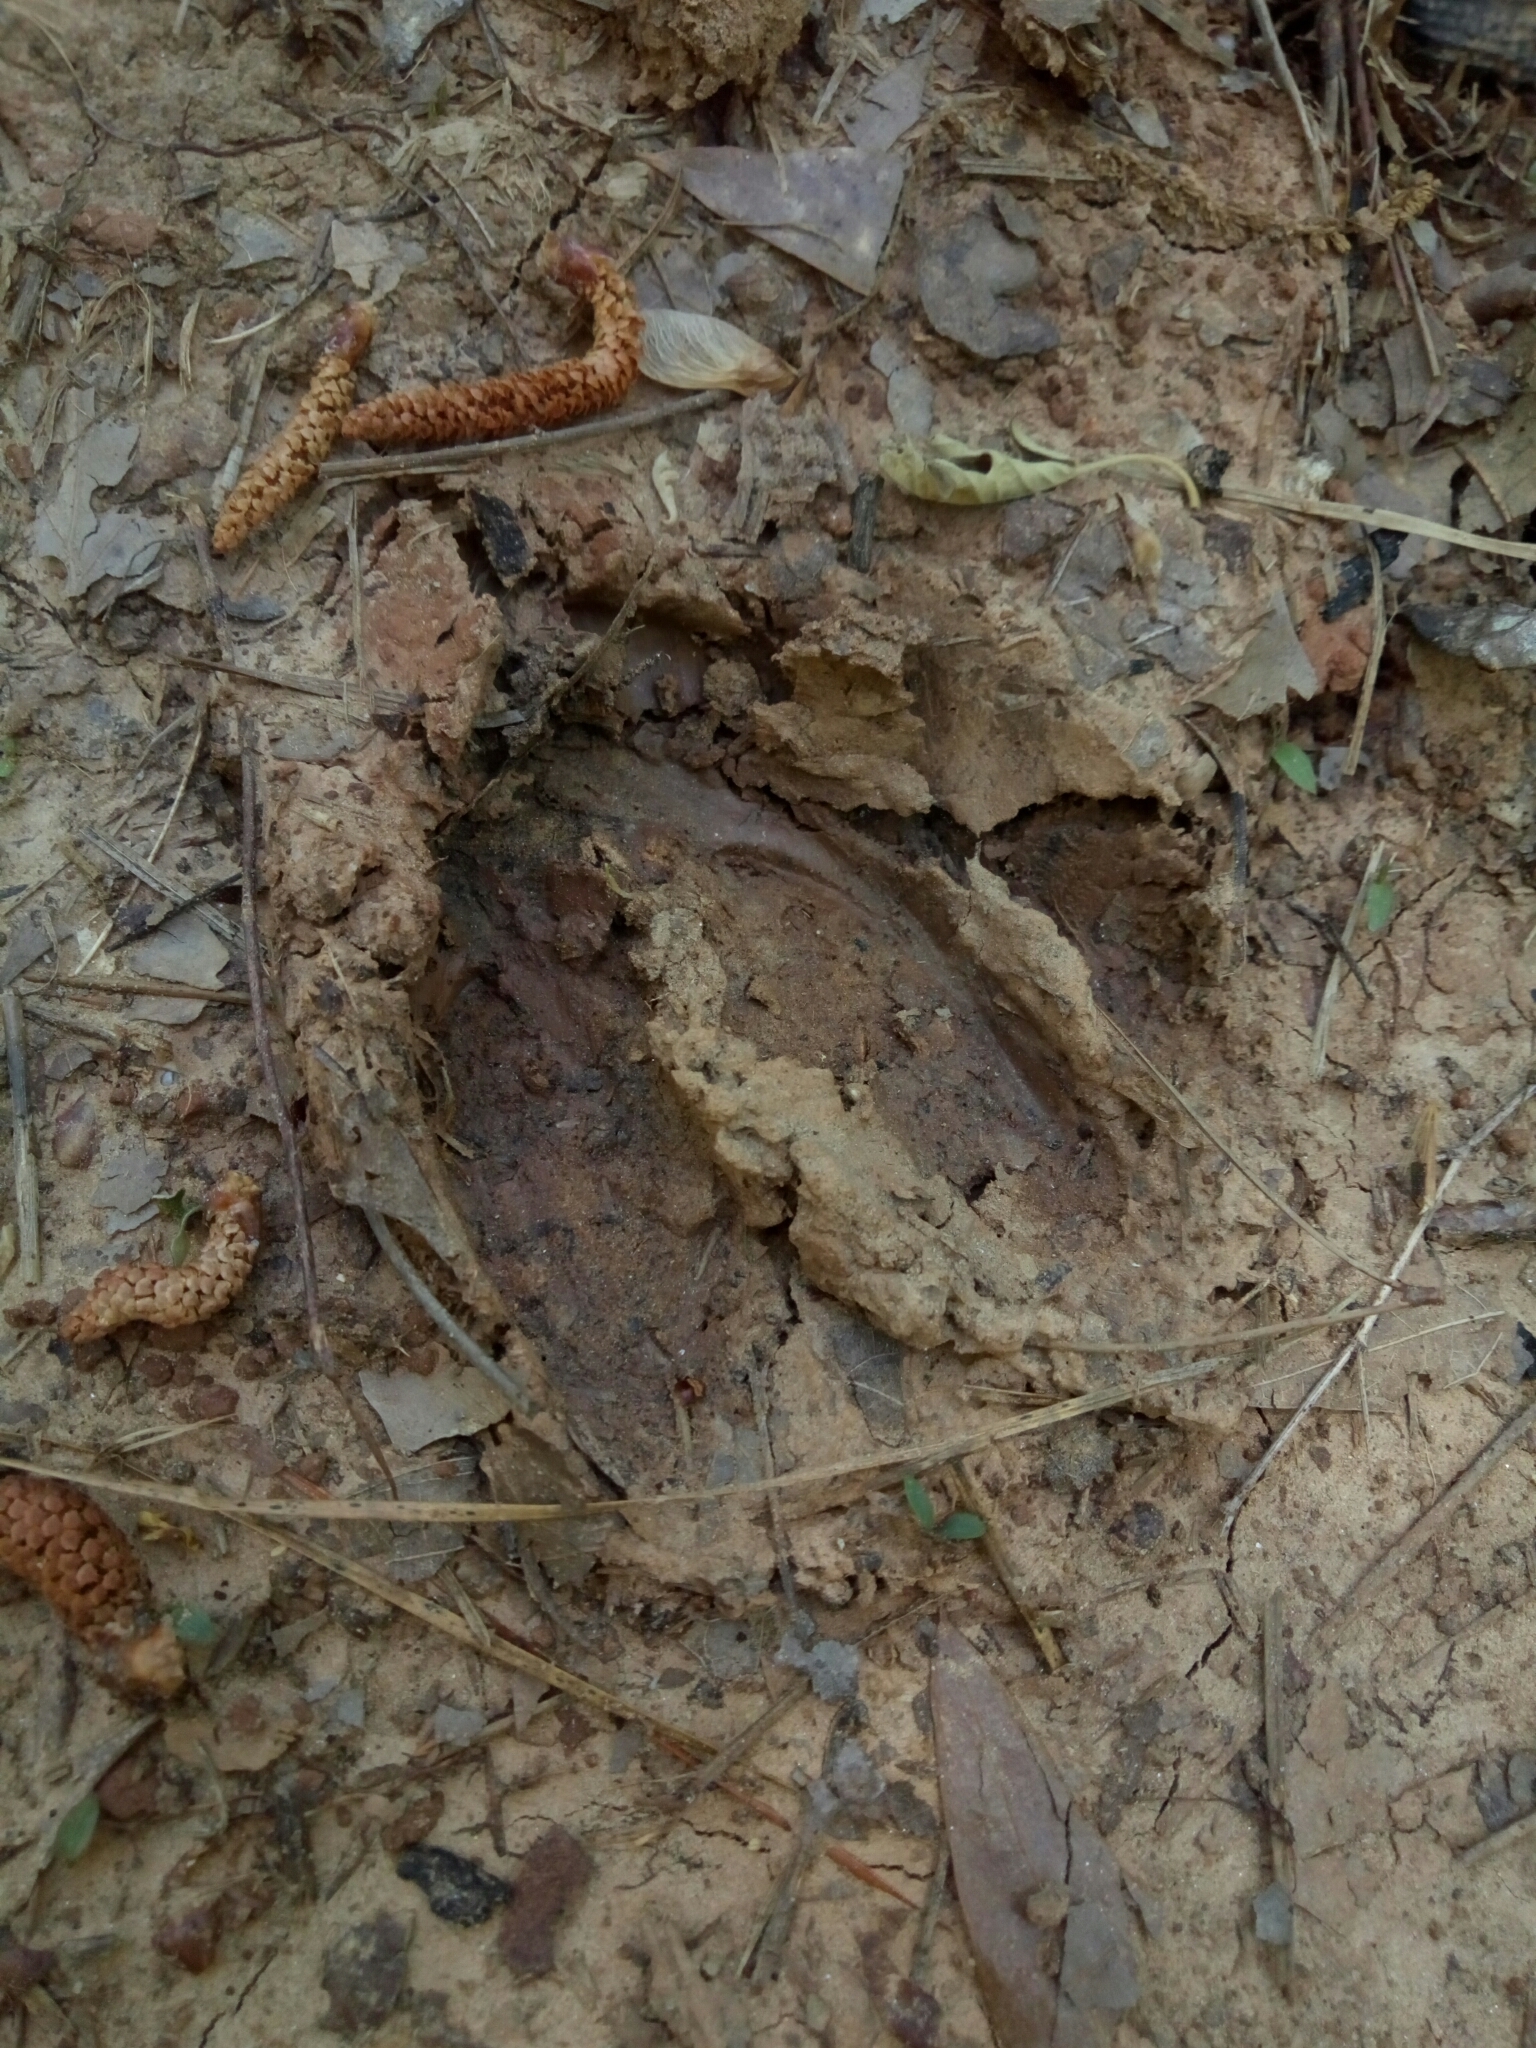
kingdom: Animalia
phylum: Chordata
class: Mammalia
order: Artiodactyla
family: Cervidae
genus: Odocoileus
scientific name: Odocoileus virginianus
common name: White-tailed deer
